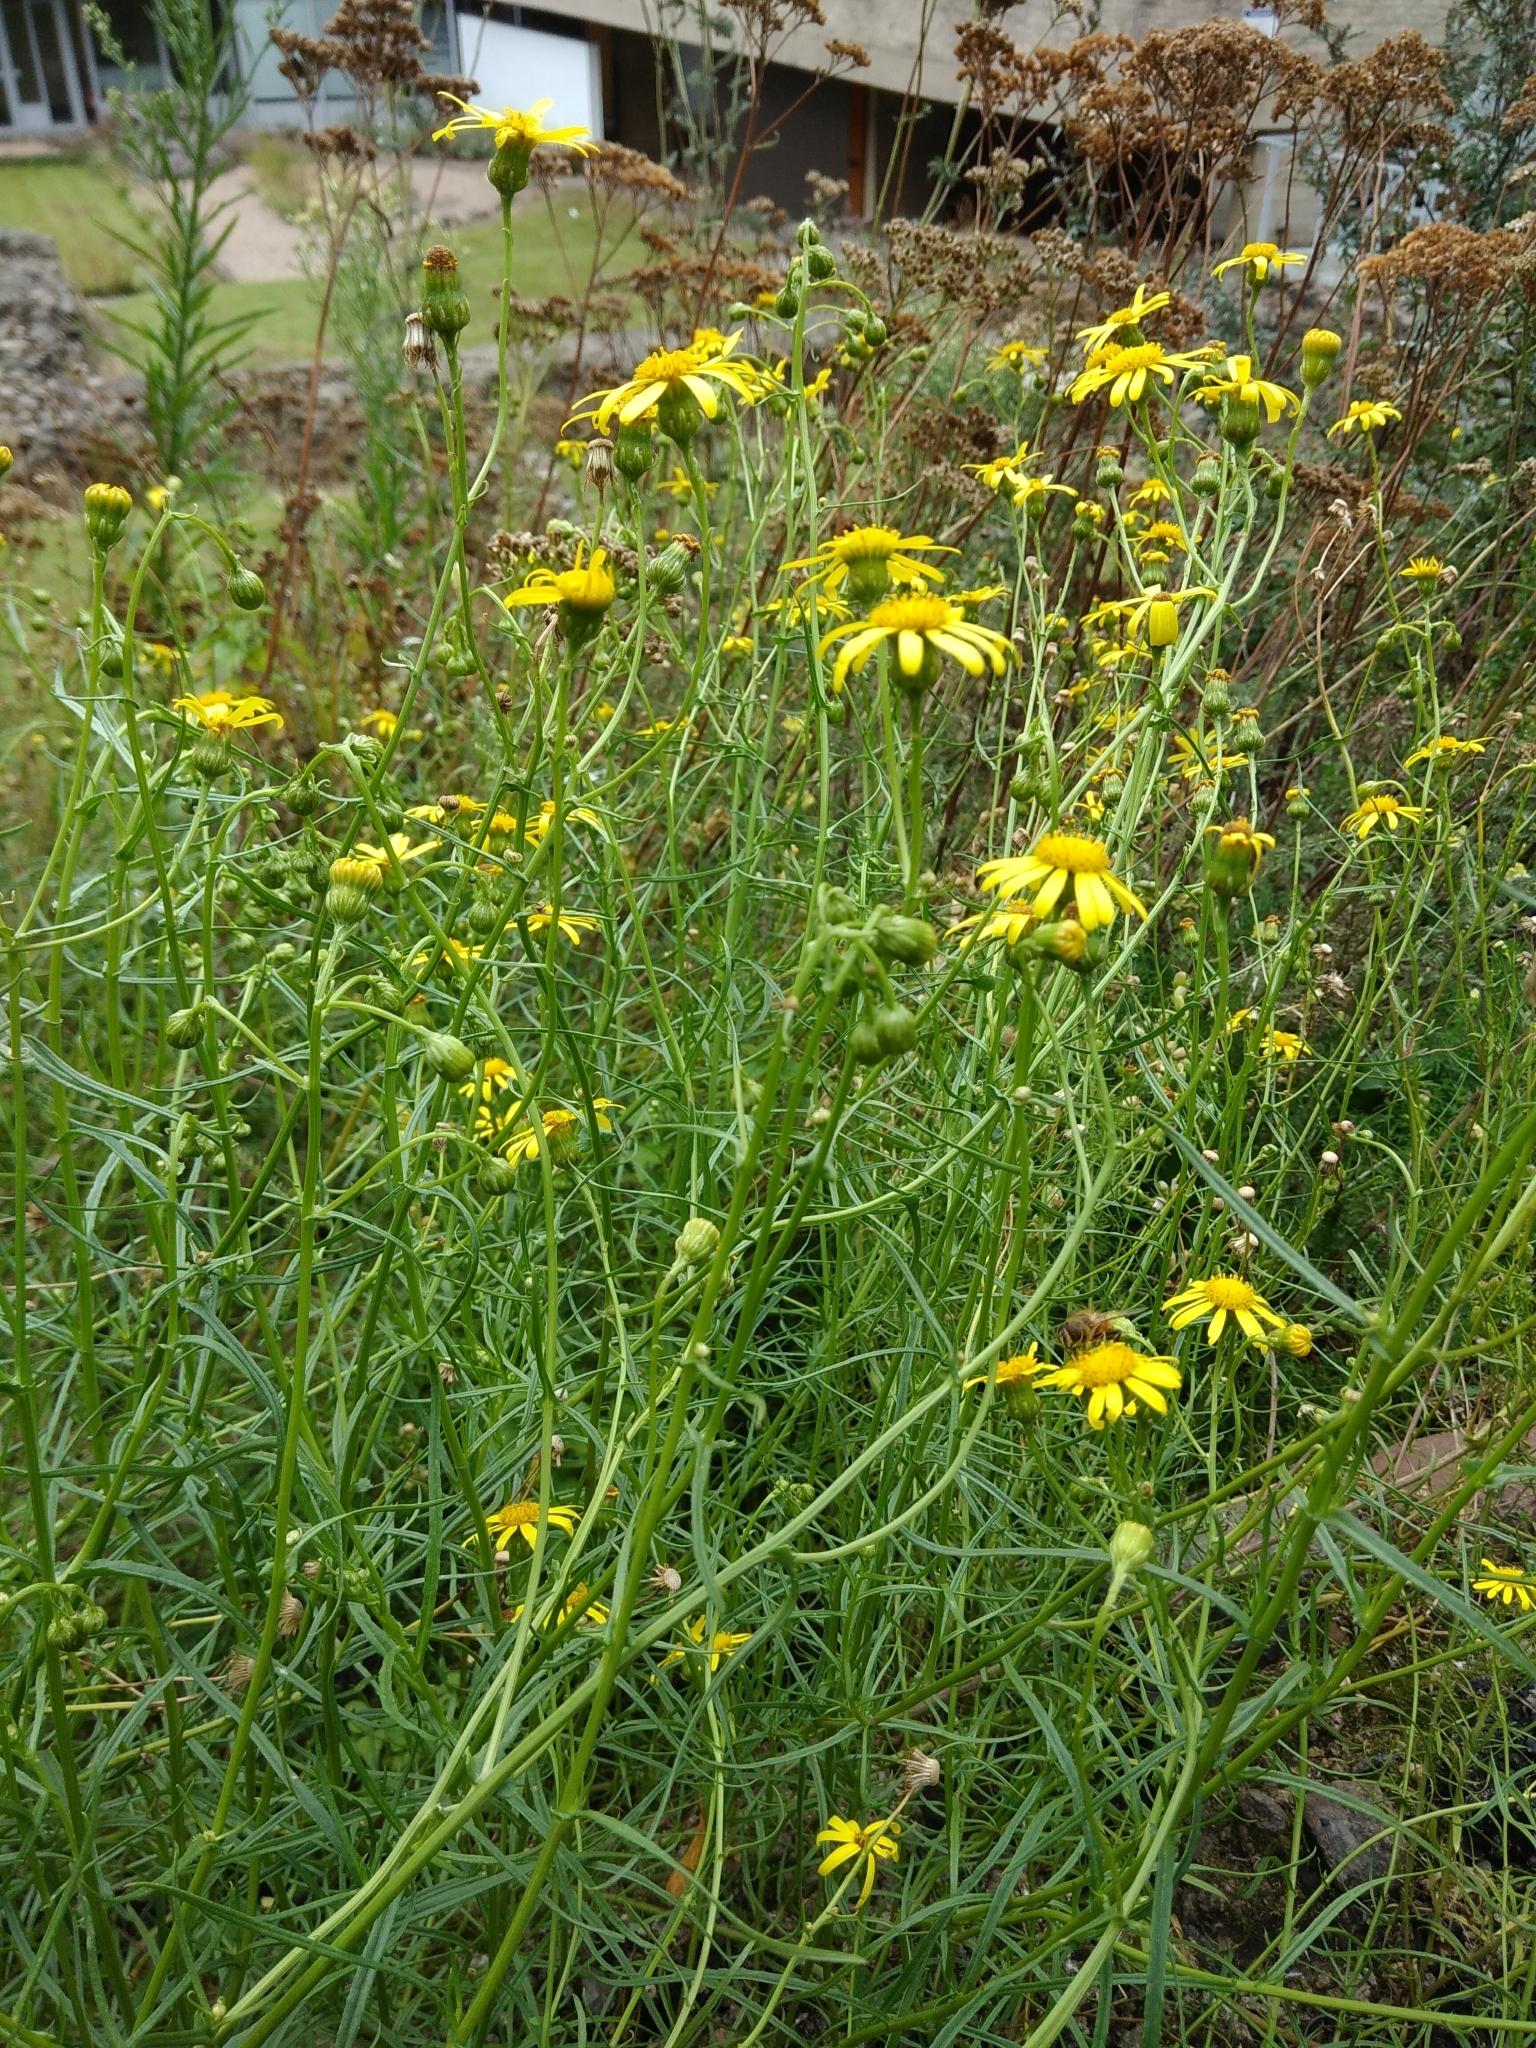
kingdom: Plantae
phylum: Tracheophyta
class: Magnoliopsida
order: Asterales
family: Asteraceae
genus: Senecio
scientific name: Senecio inaequidens
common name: Narrow-leaved ragwort
